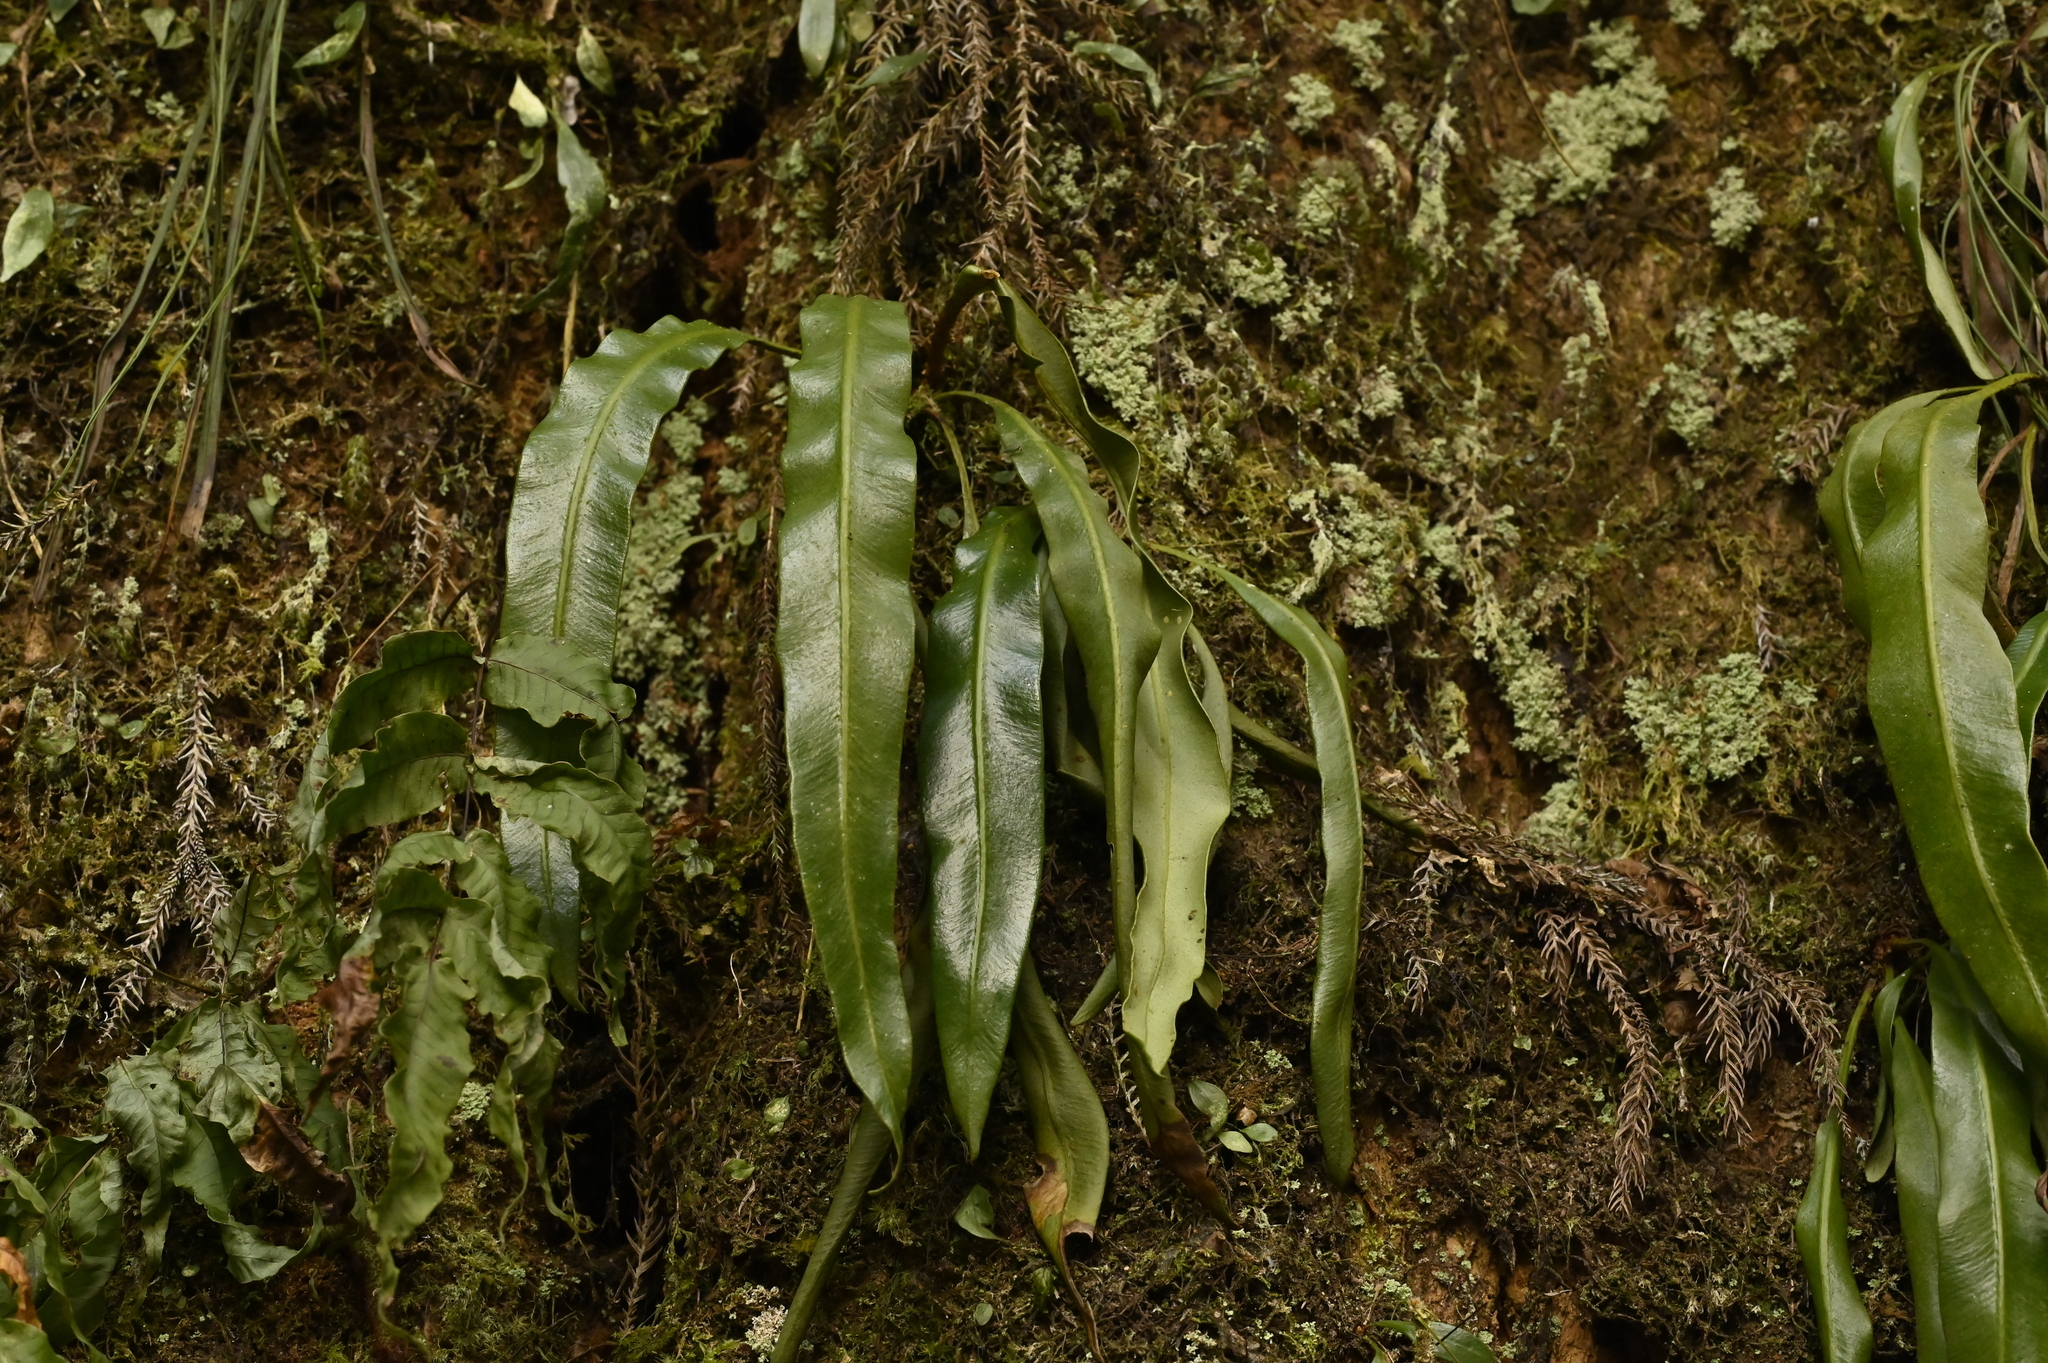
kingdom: Plantae
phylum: Tracheophyta
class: Polypodiopsida
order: Polypodiales
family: Dryopteridaceae
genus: Elaphoglossum
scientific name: Elaphoglossum marginatum
